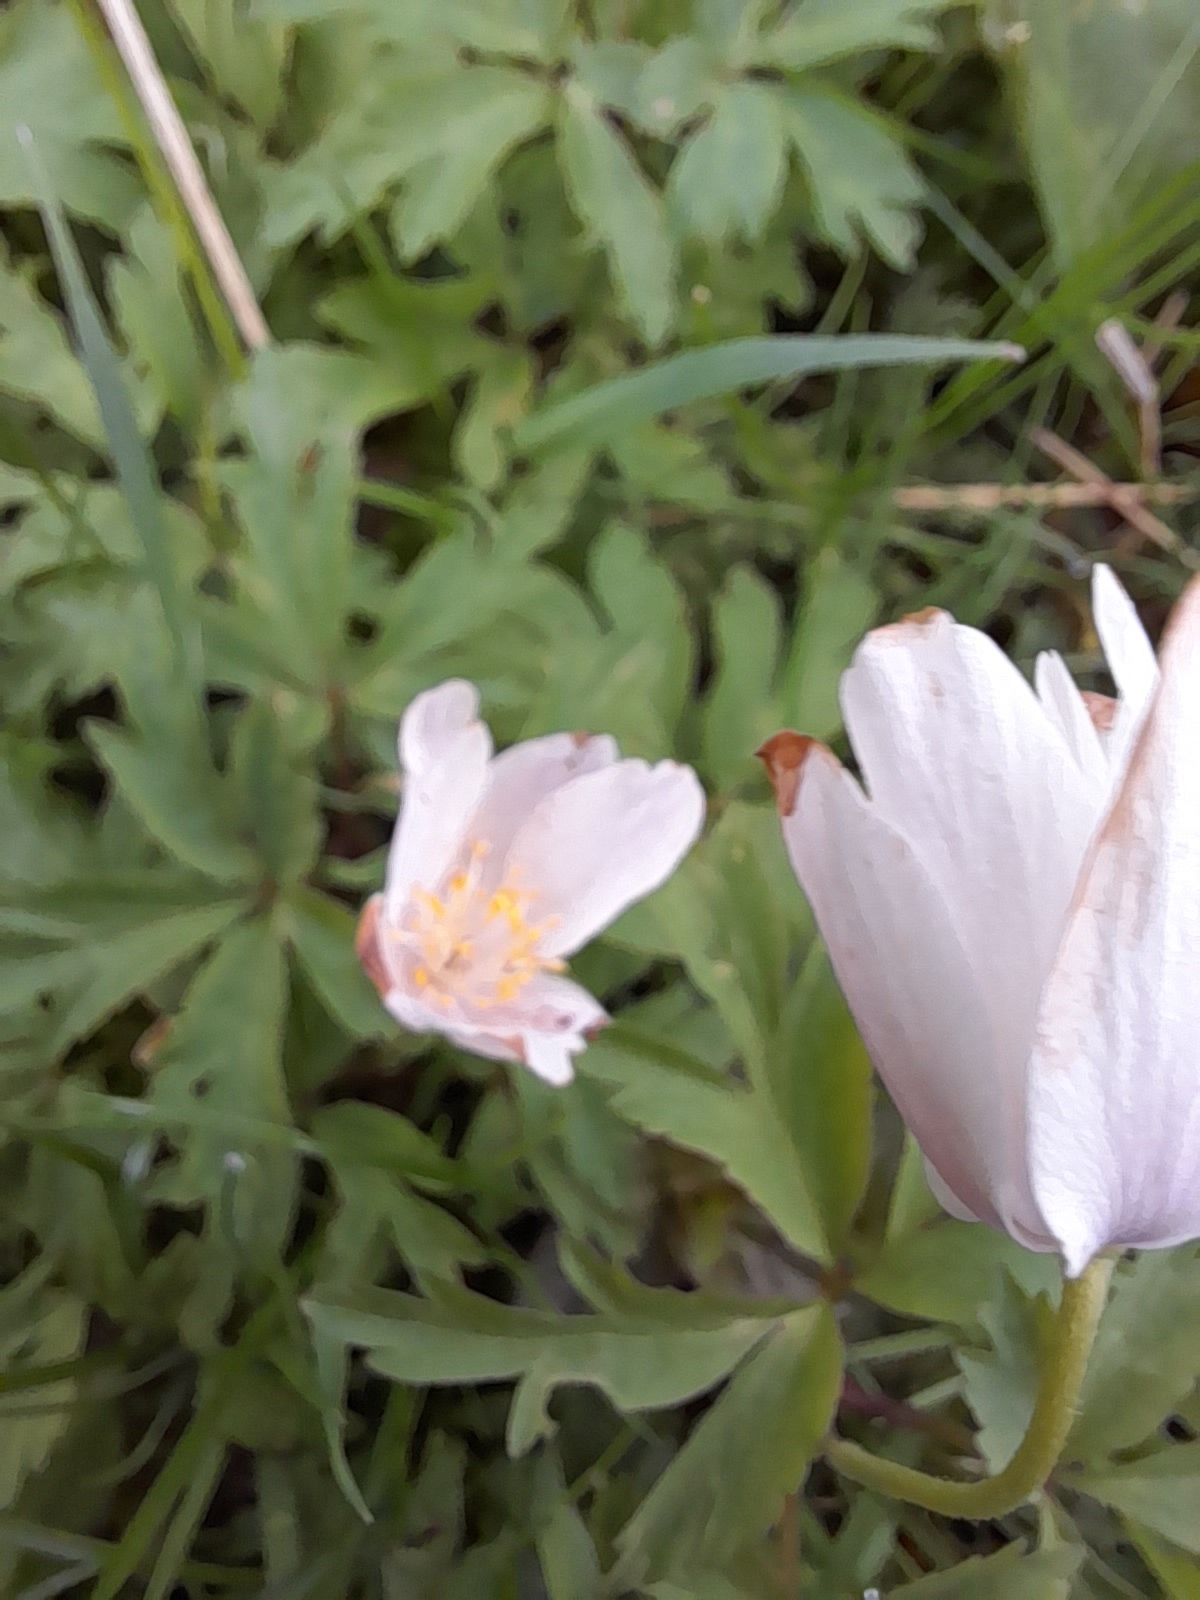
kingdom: Plantae
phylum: Tracheophyta
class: Magnoliopsida
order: Ranunculales
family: Ranunculaceae
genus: Anemone
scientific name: Anemone nemorosa
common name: Wood anemone
